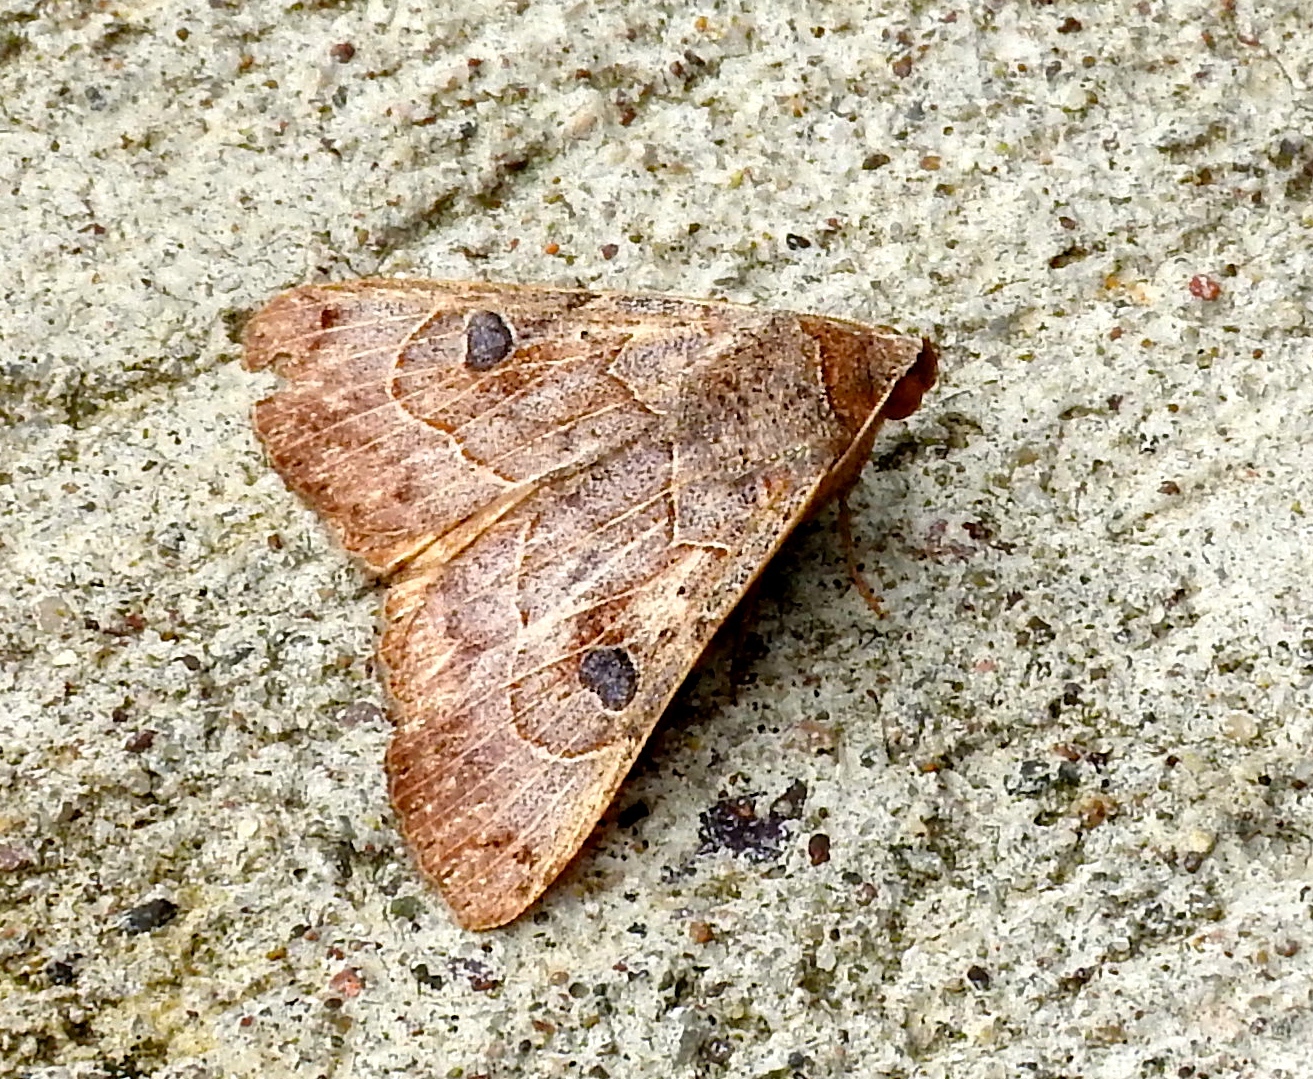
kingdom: Animalia
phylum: Arthropoda
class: Insecta
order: Lepidoptera
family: Erebidae
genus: Isogona
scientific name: Isogona scindens
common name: Owlet moth
